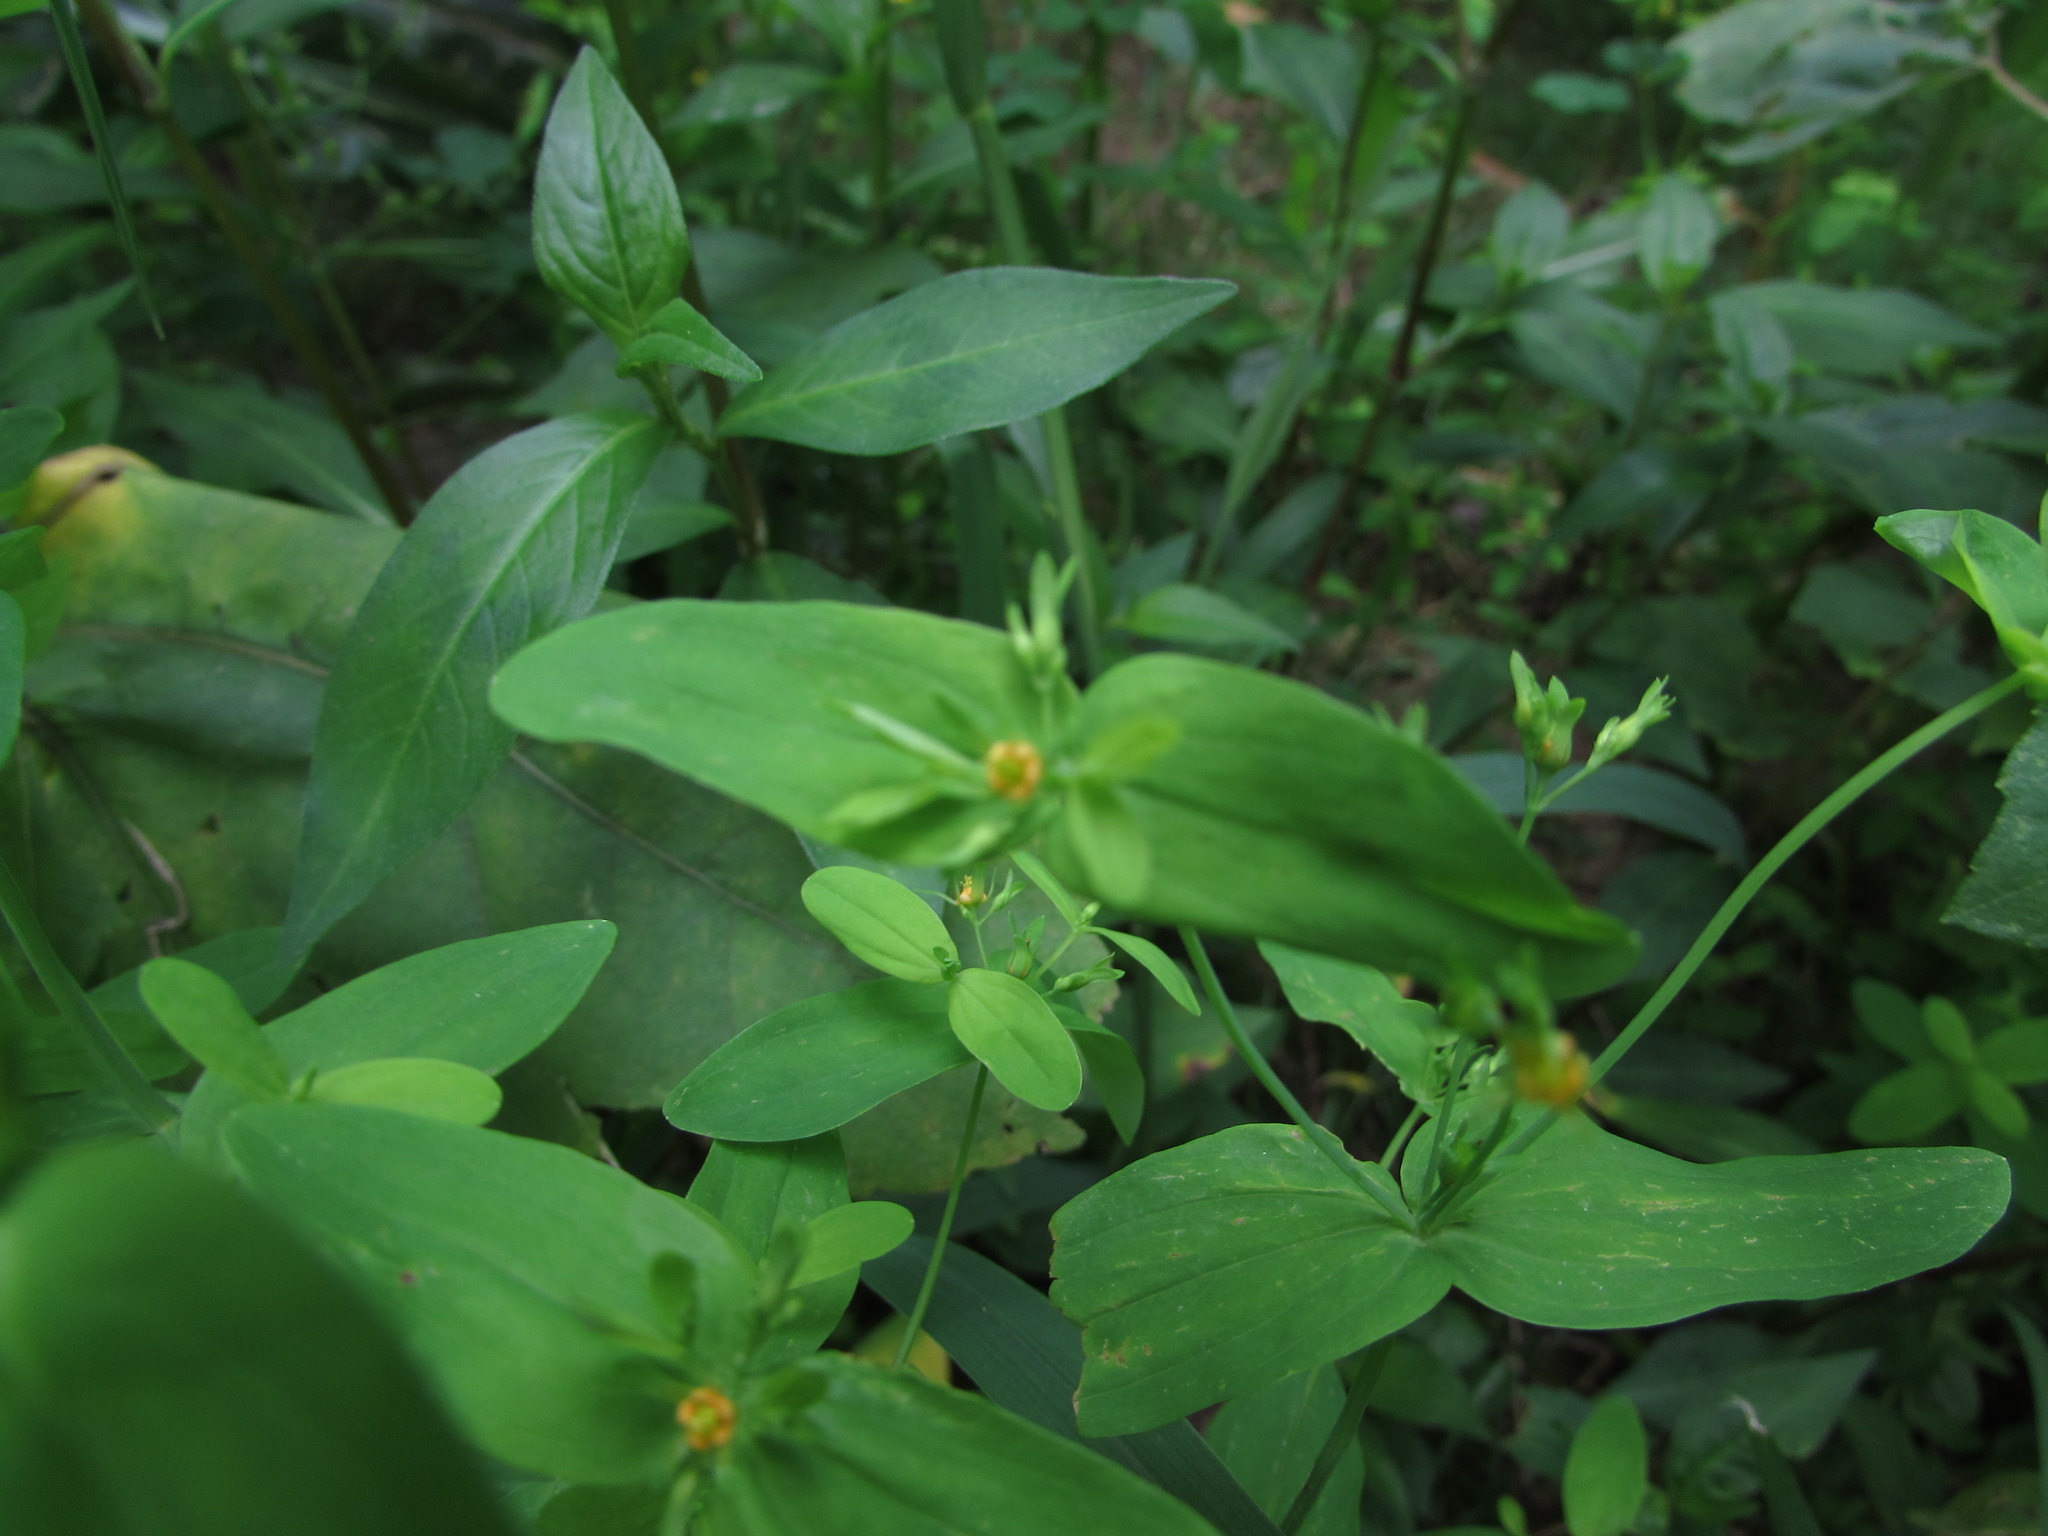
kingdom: Plantae
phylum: Tracheophyta
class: Magnoliopsida
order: Malpighiales
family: Hypericaceae
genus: Hypericum
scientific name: Hypericum mutilum
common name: Dwarf st. john's-wort
